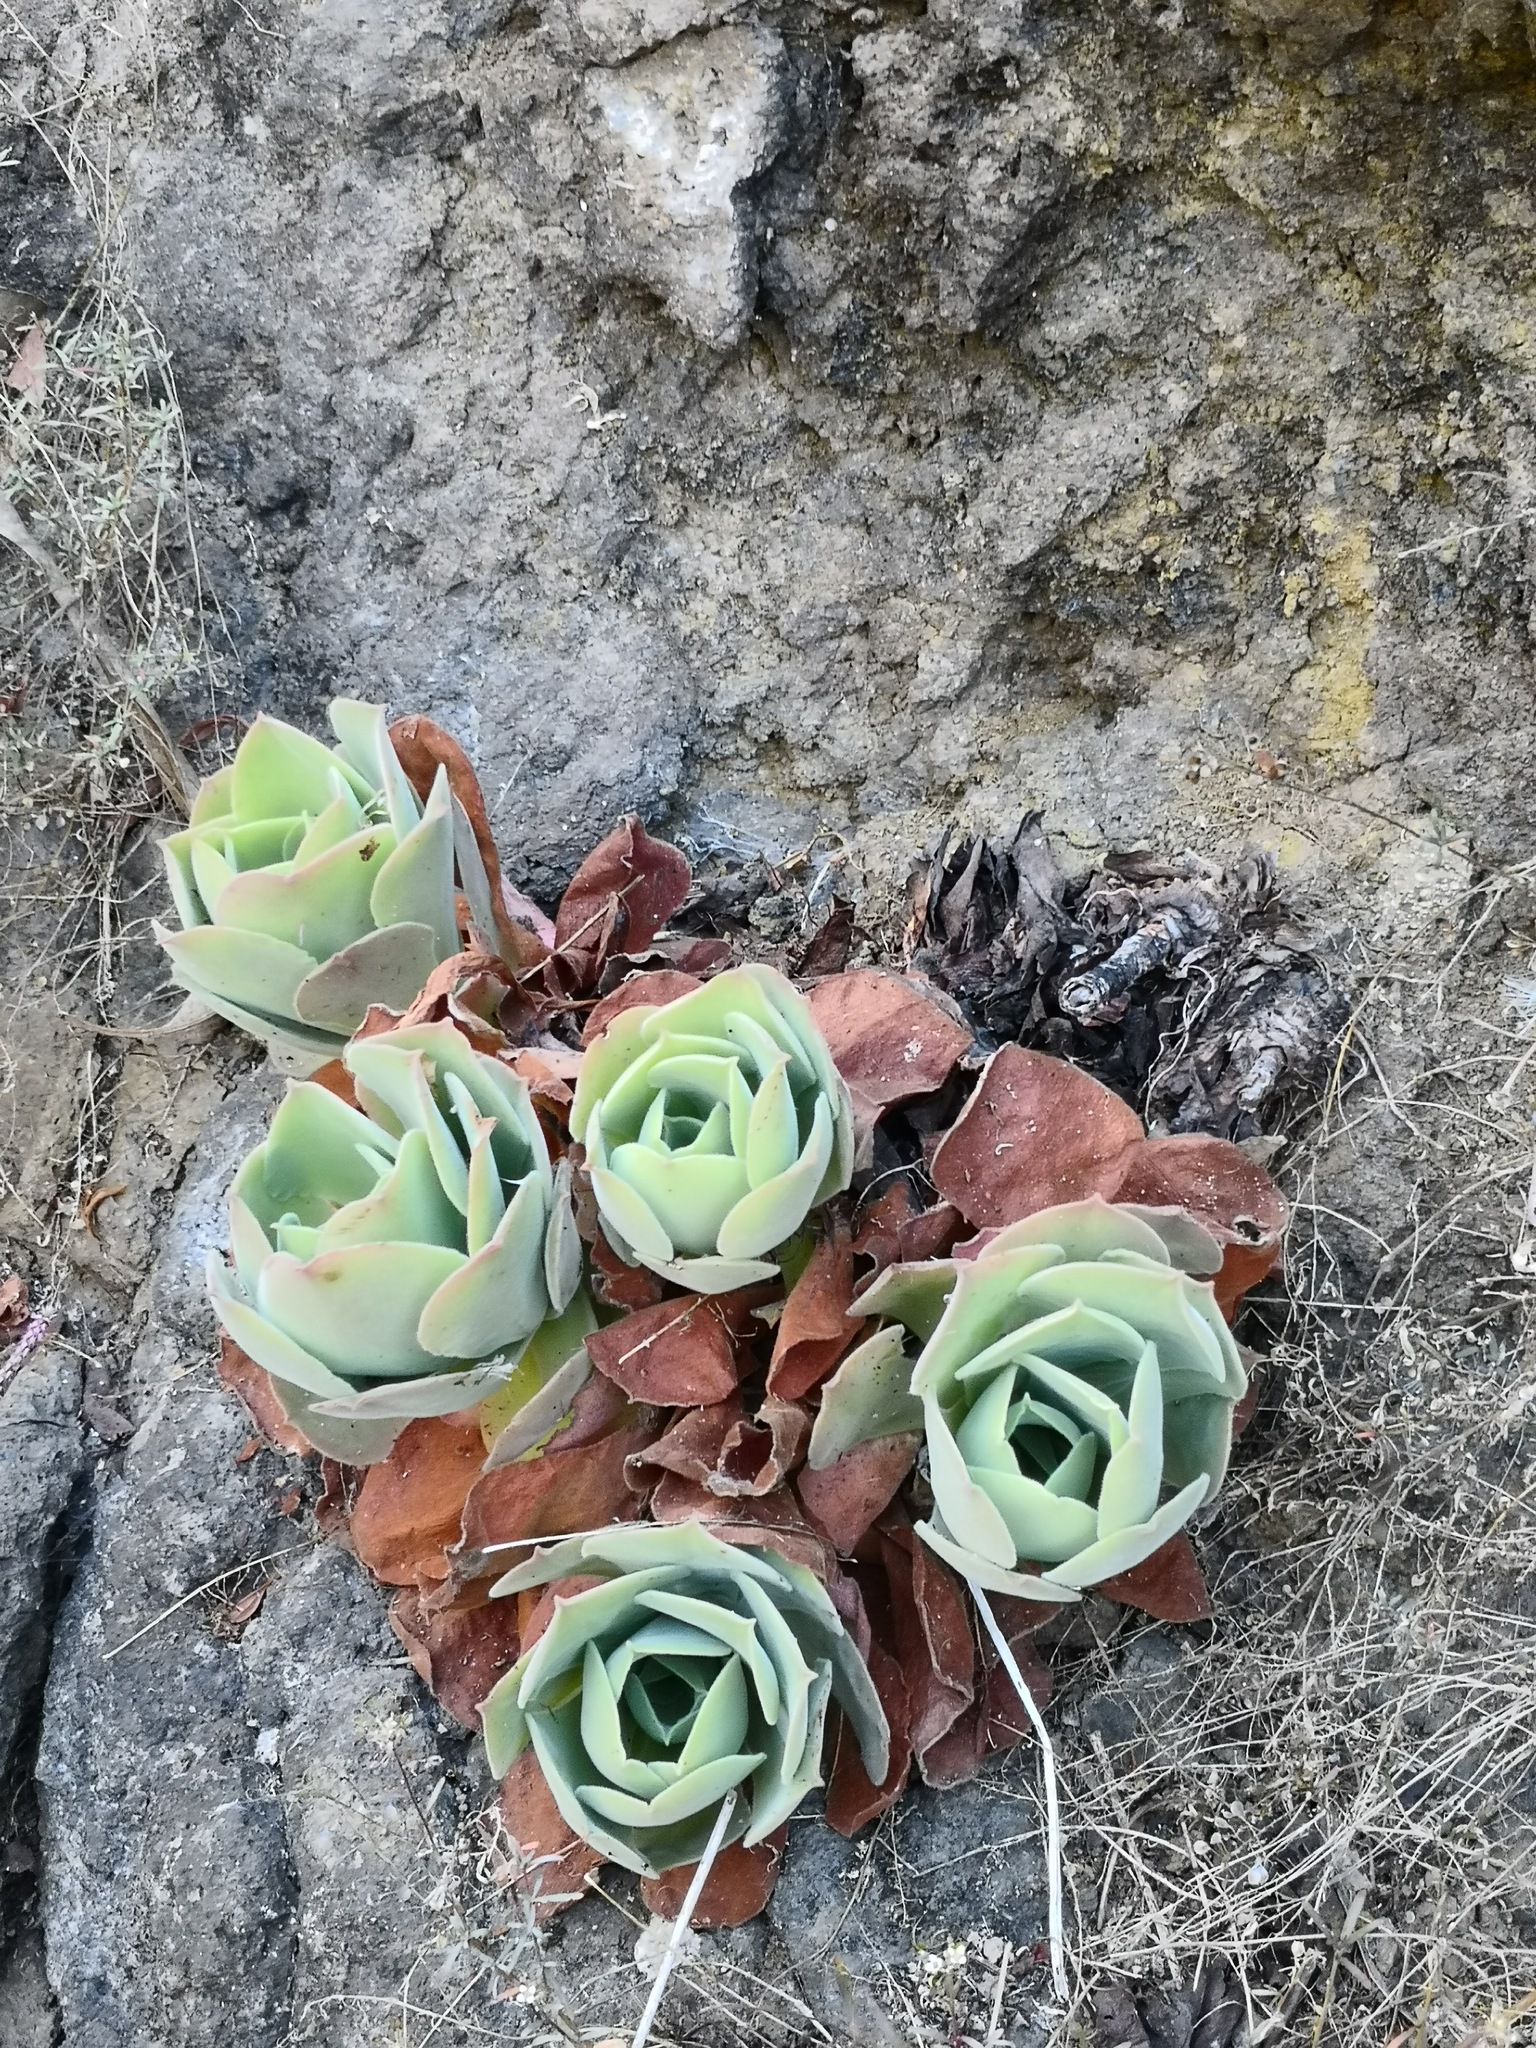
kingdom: Plantae
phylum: Tracheophyta
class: Magnoliopsida
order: Saxifragales
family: Crassulaceae
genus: Aeonium
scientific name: Aeonium canariense
